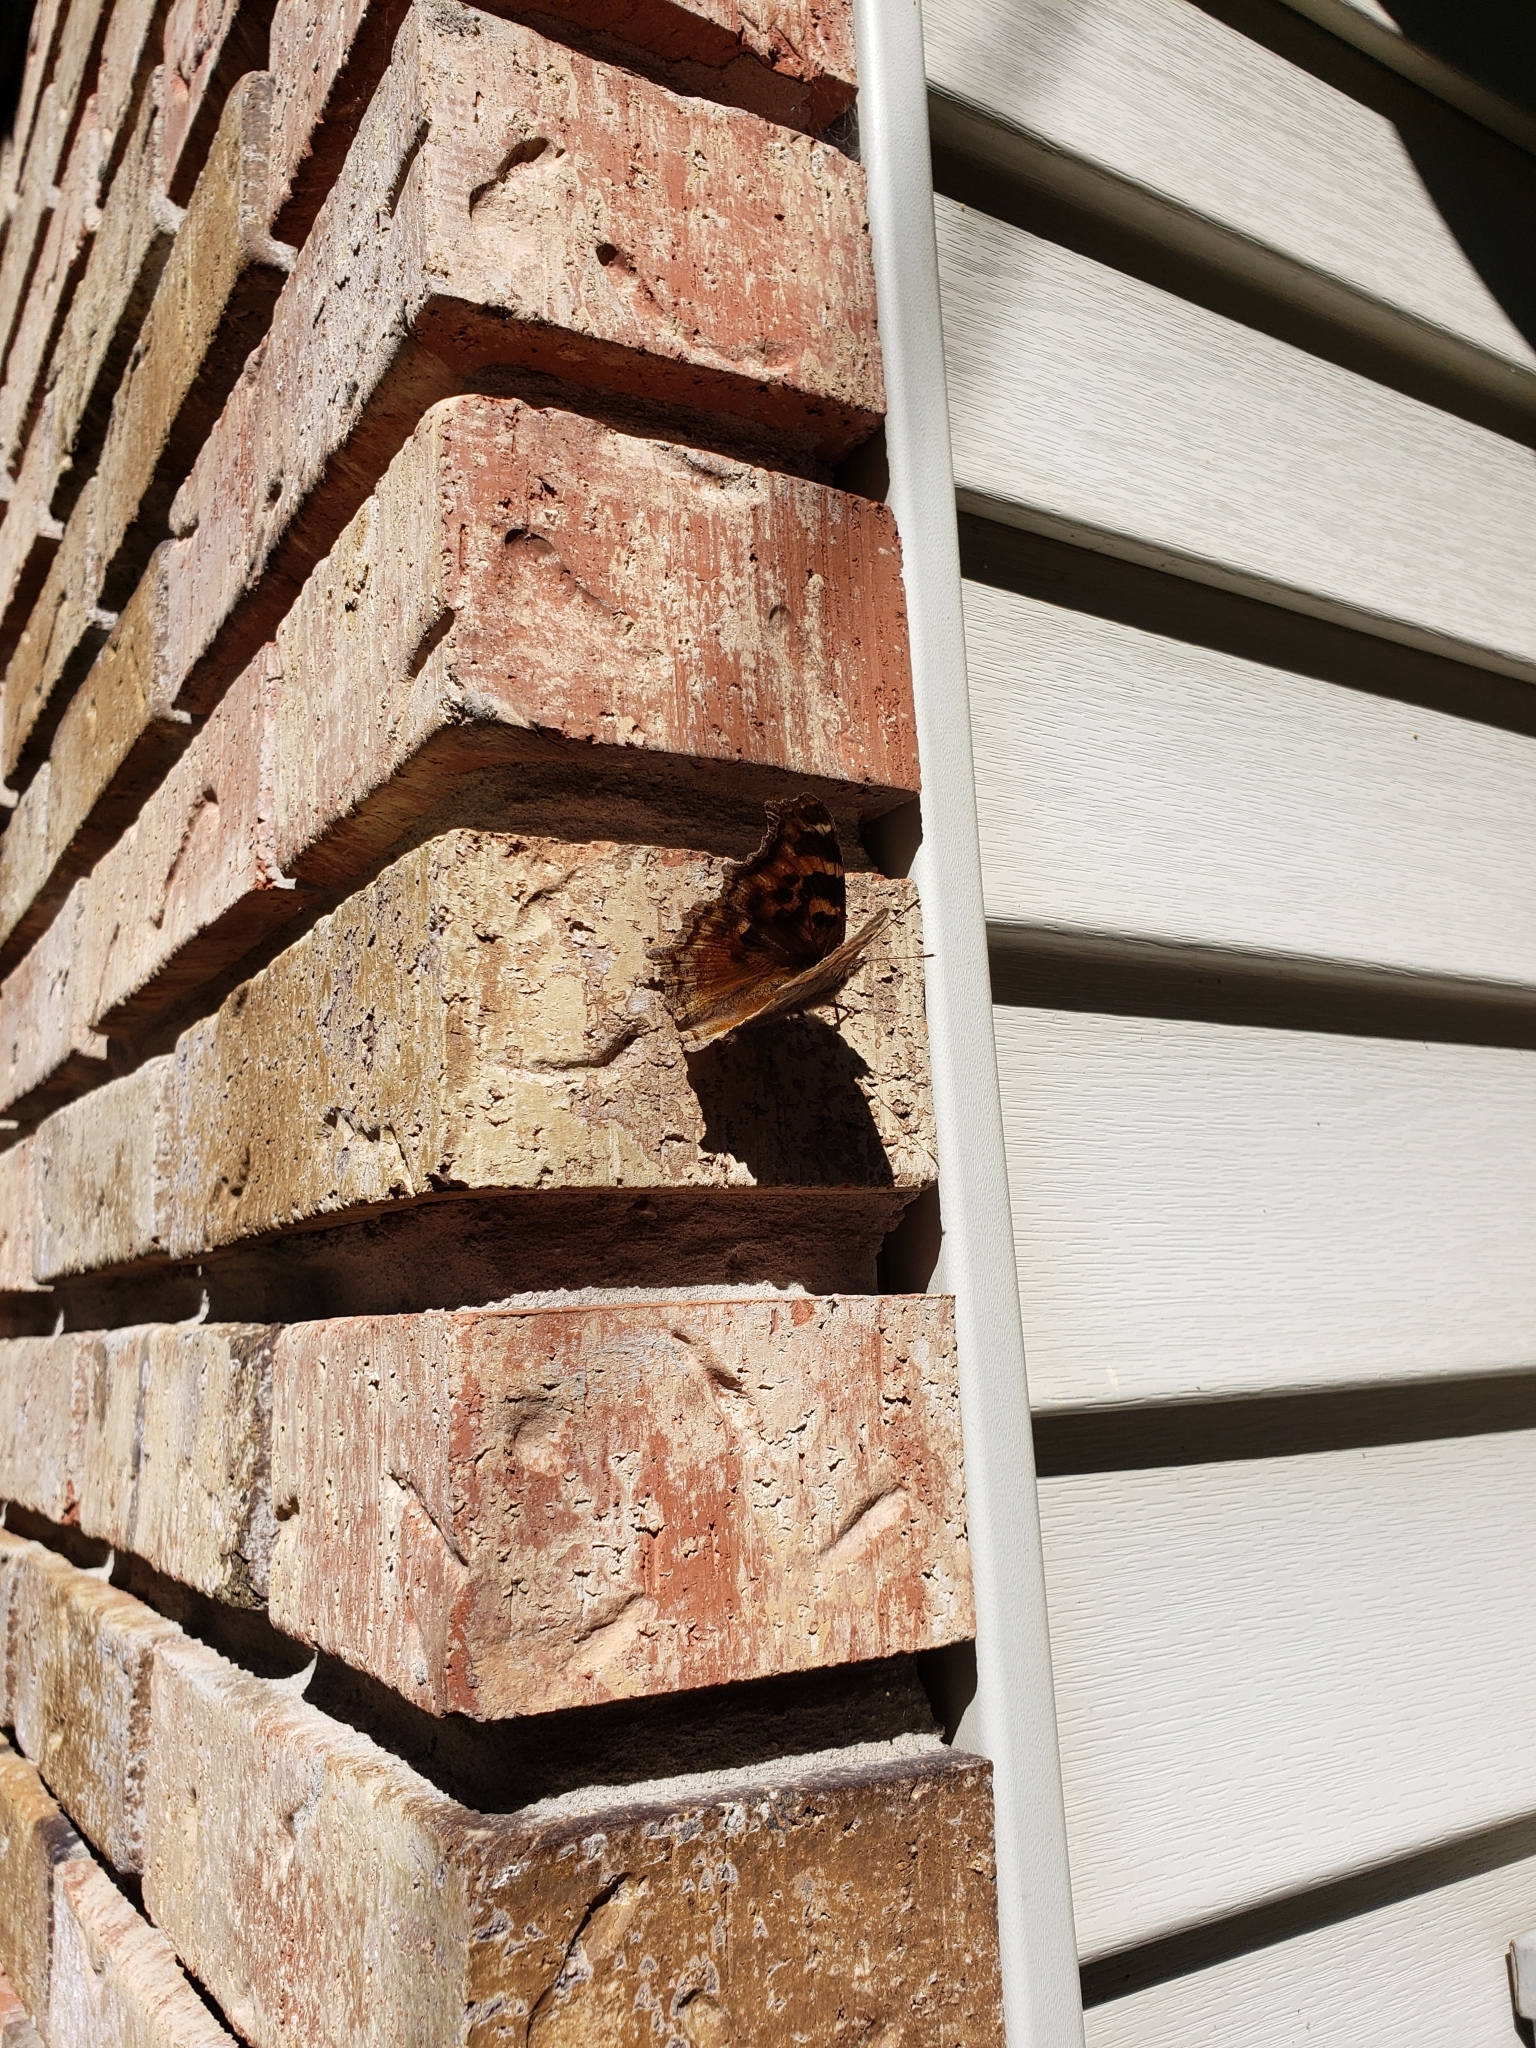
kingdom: Animalia
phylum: Arthropoda
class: Insecta
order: Lepidoptera
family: Nymphalidae
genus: Polygonia
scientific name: Polygonia vaualbum
